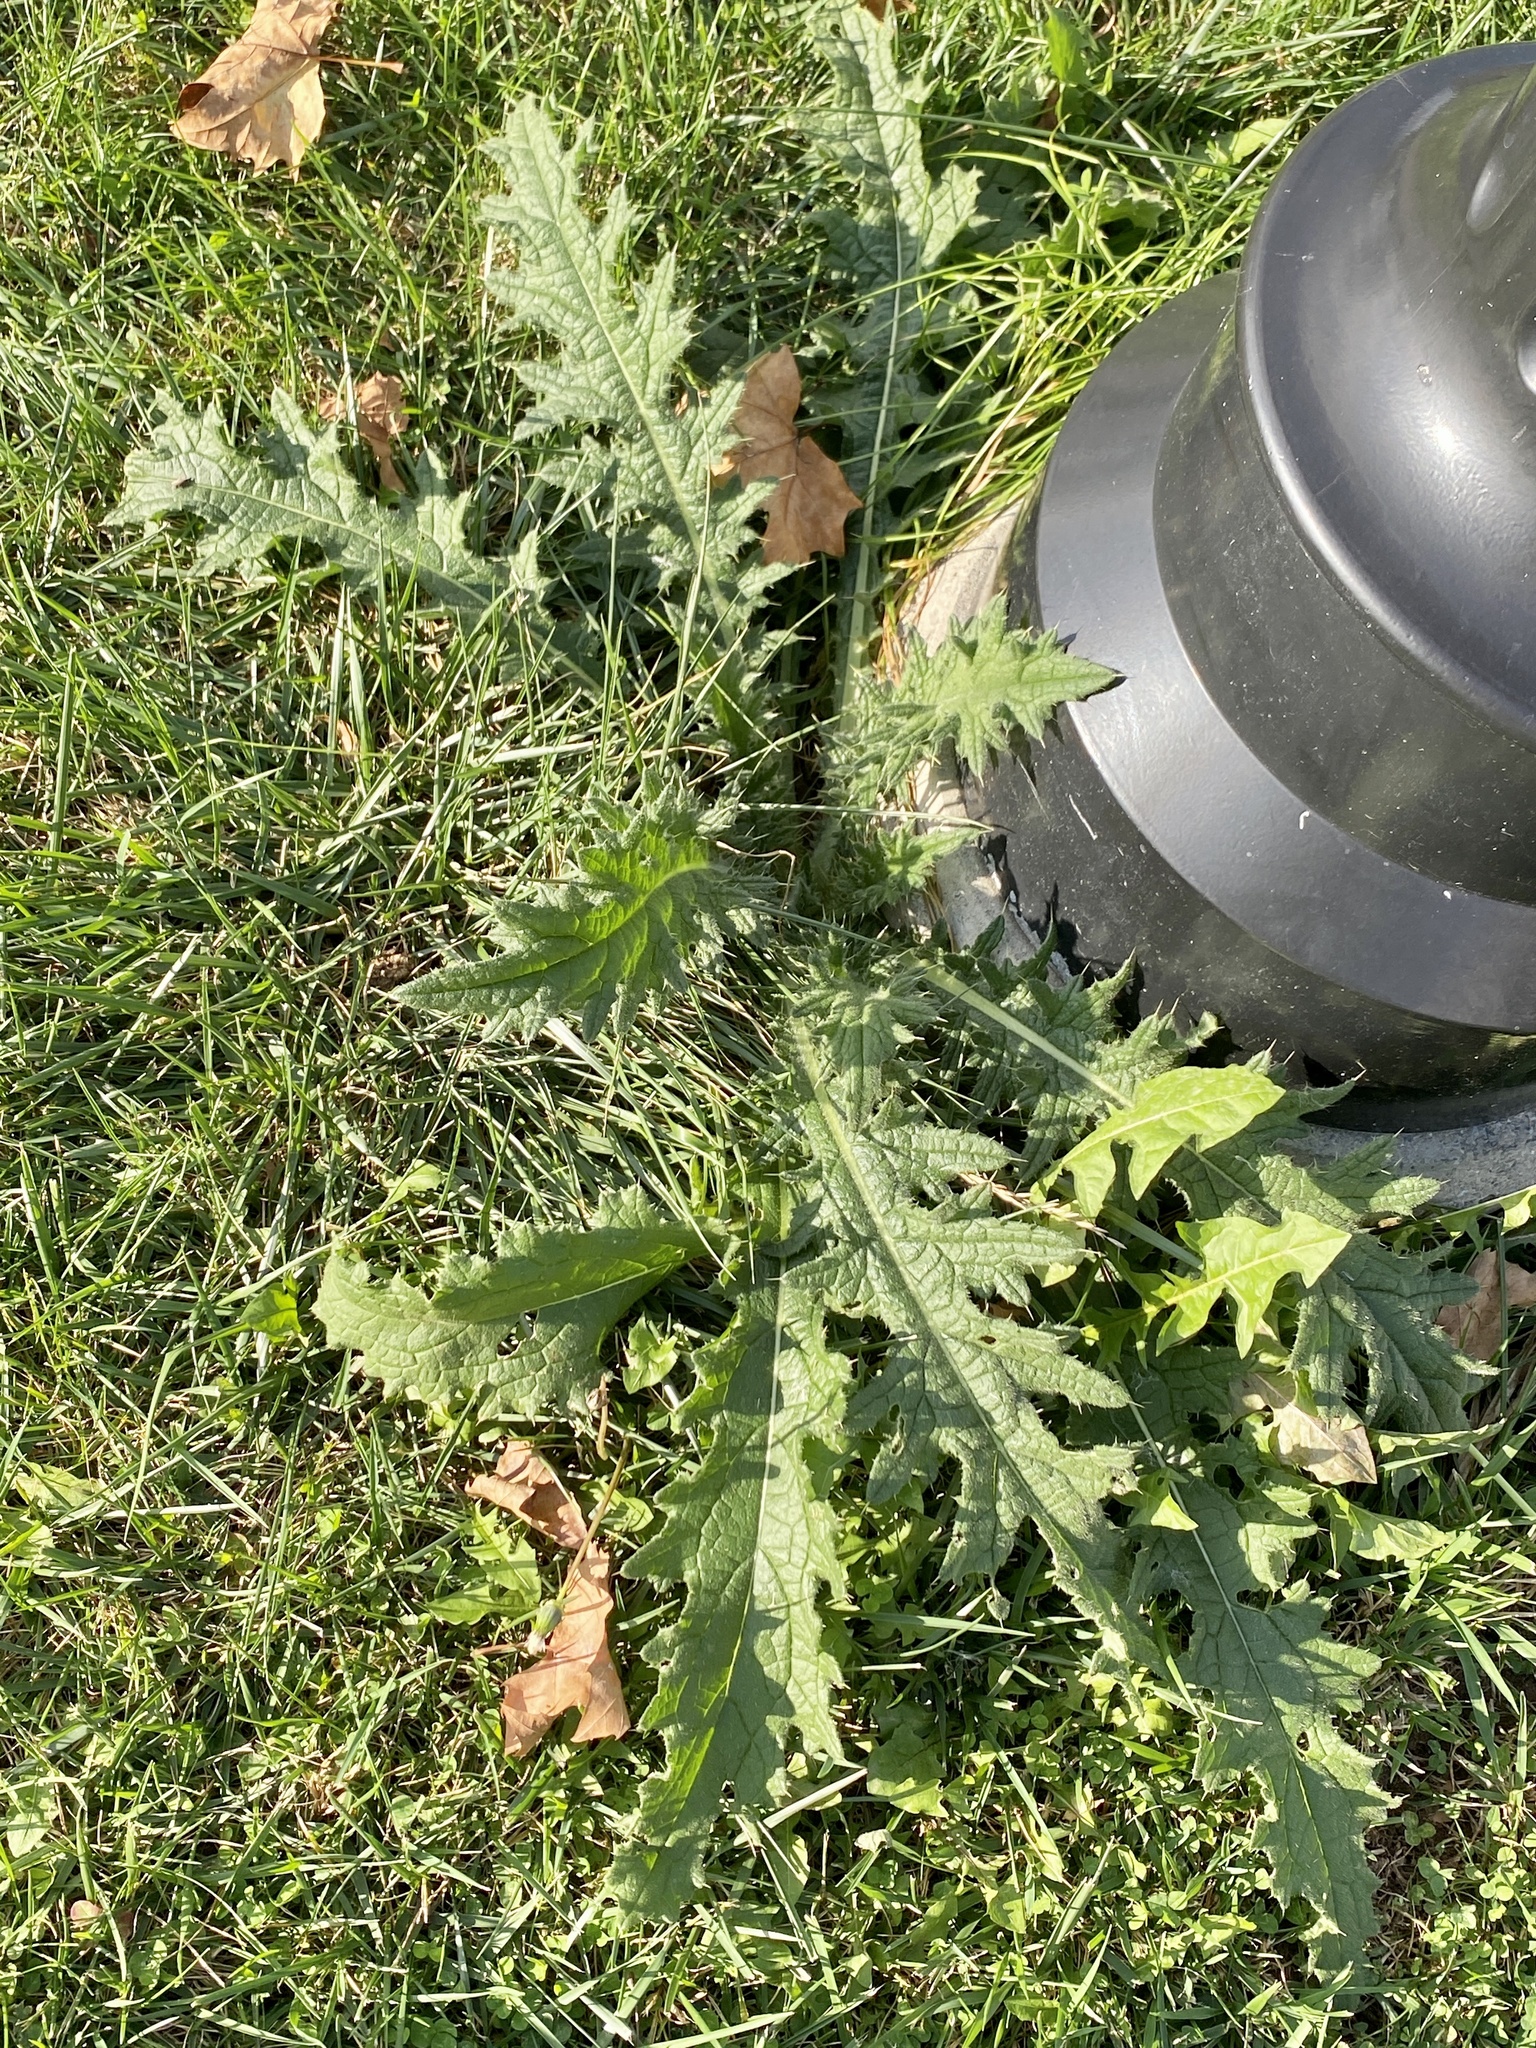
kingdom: Plantae
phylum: Tracheophyta
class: Magnoliopsida
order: Asterales
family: Asteraceae
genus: Cirsium
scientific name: Cirsium vulgare
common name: Bull thistle
